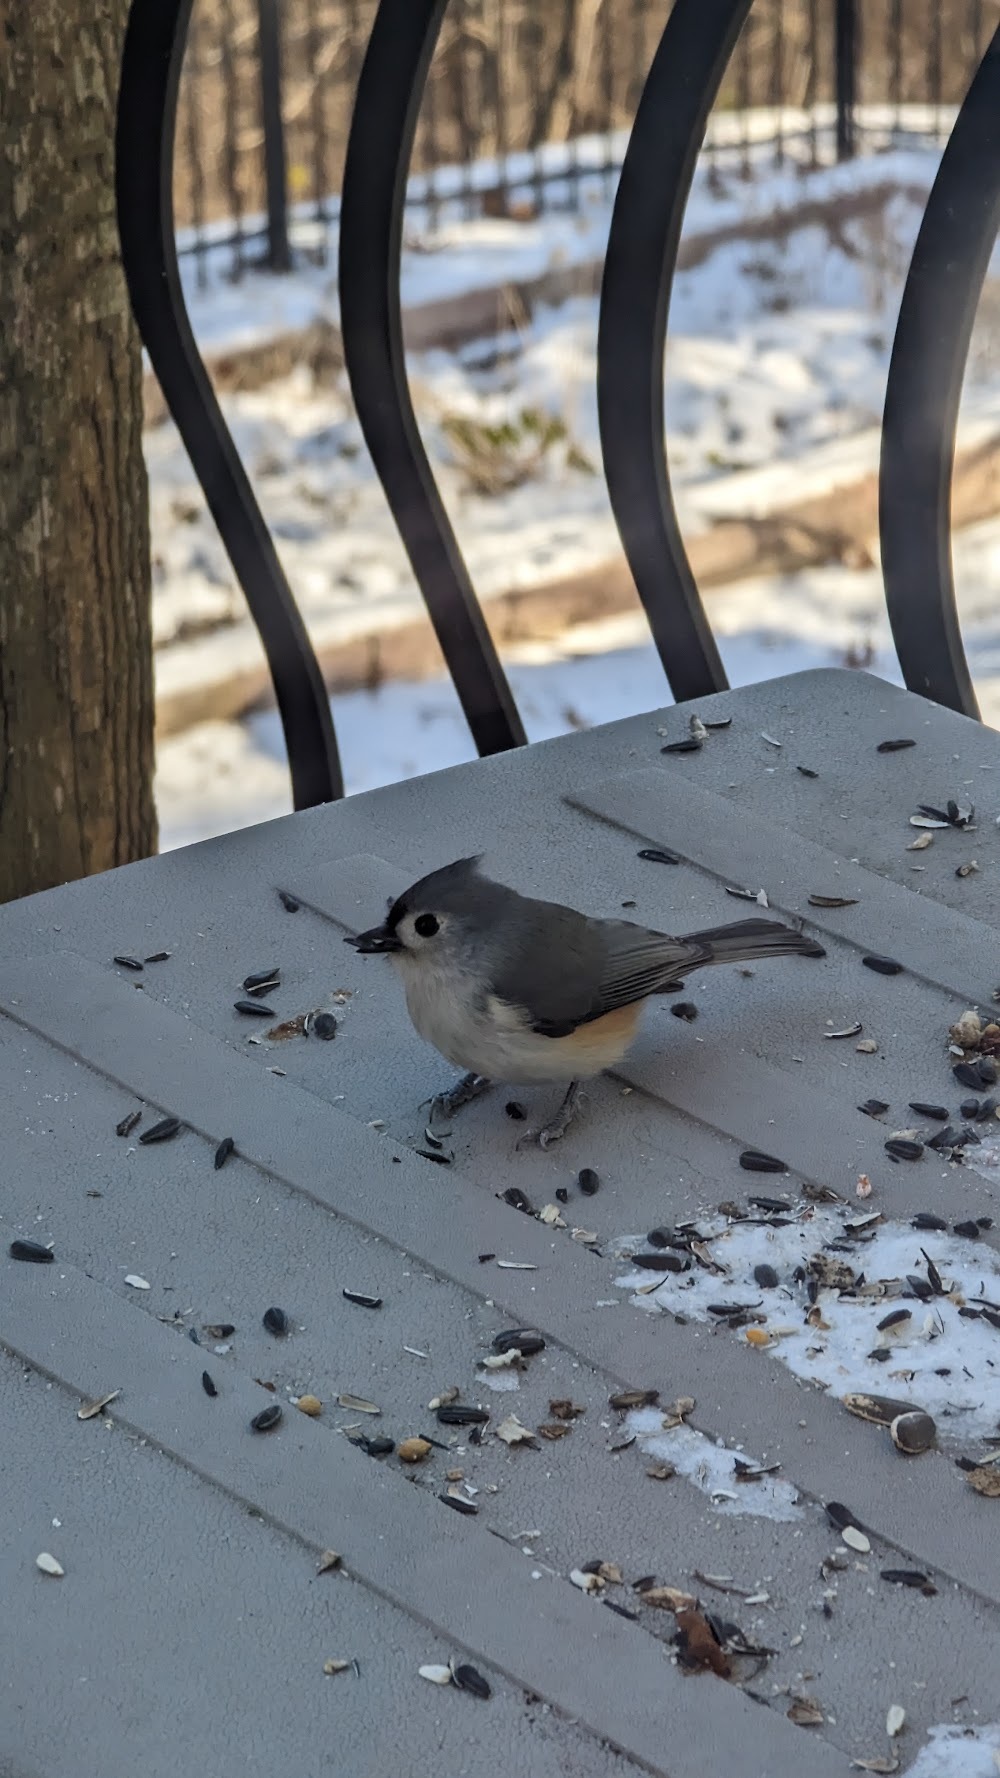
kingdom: Animalia
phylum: Chordata
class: Aves
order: Passeriformes
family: Paridae
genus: Baeolophus
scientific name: Baeolophus bicolor
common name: Tufted titmouse
